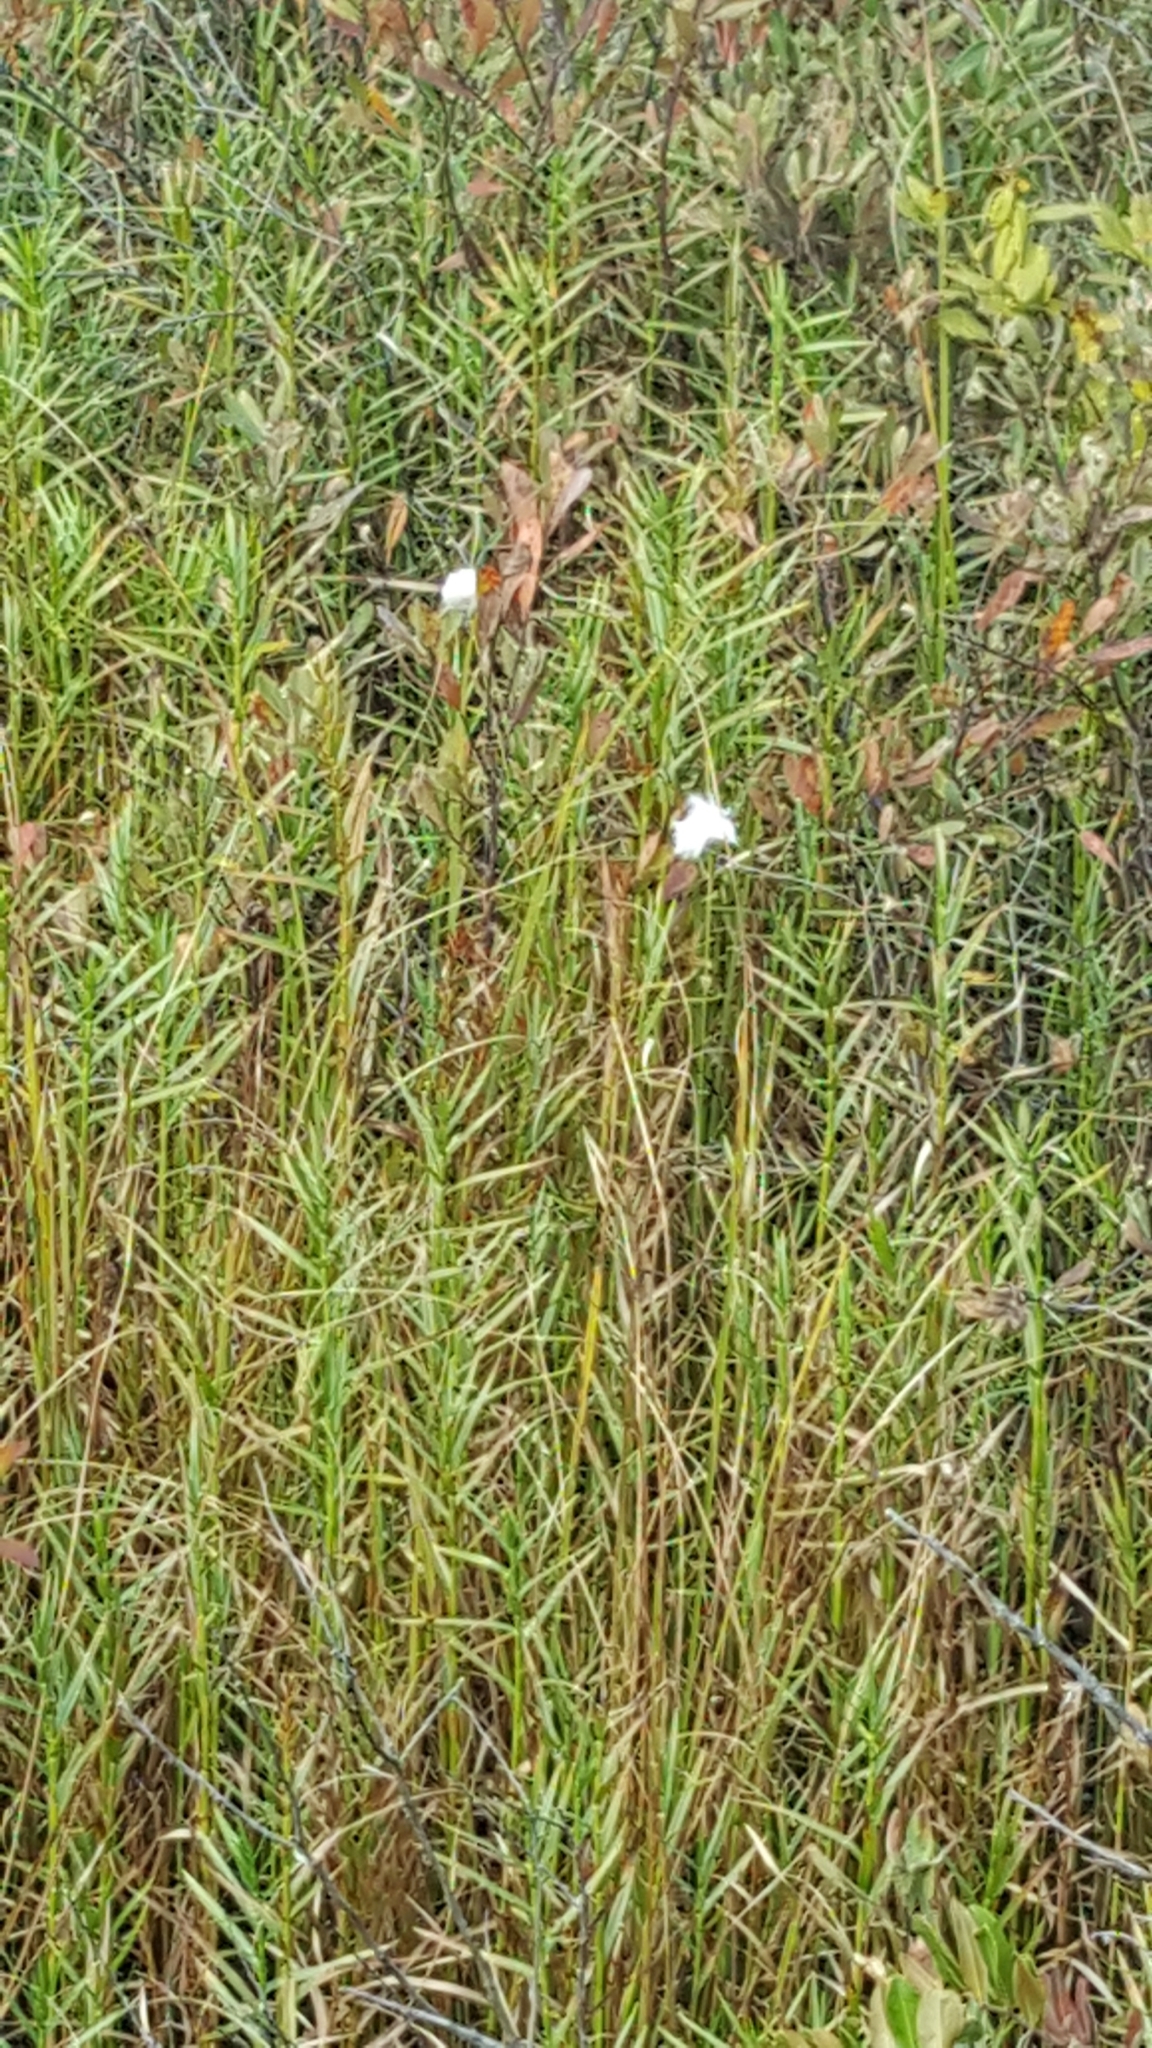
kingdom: Plantae
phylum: Tracheophyta
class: Liliopsida
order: Poales
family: Cyperaceae
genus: Eriophorum
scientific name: Eriophorum virginicum
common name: Tawny cottongrass
